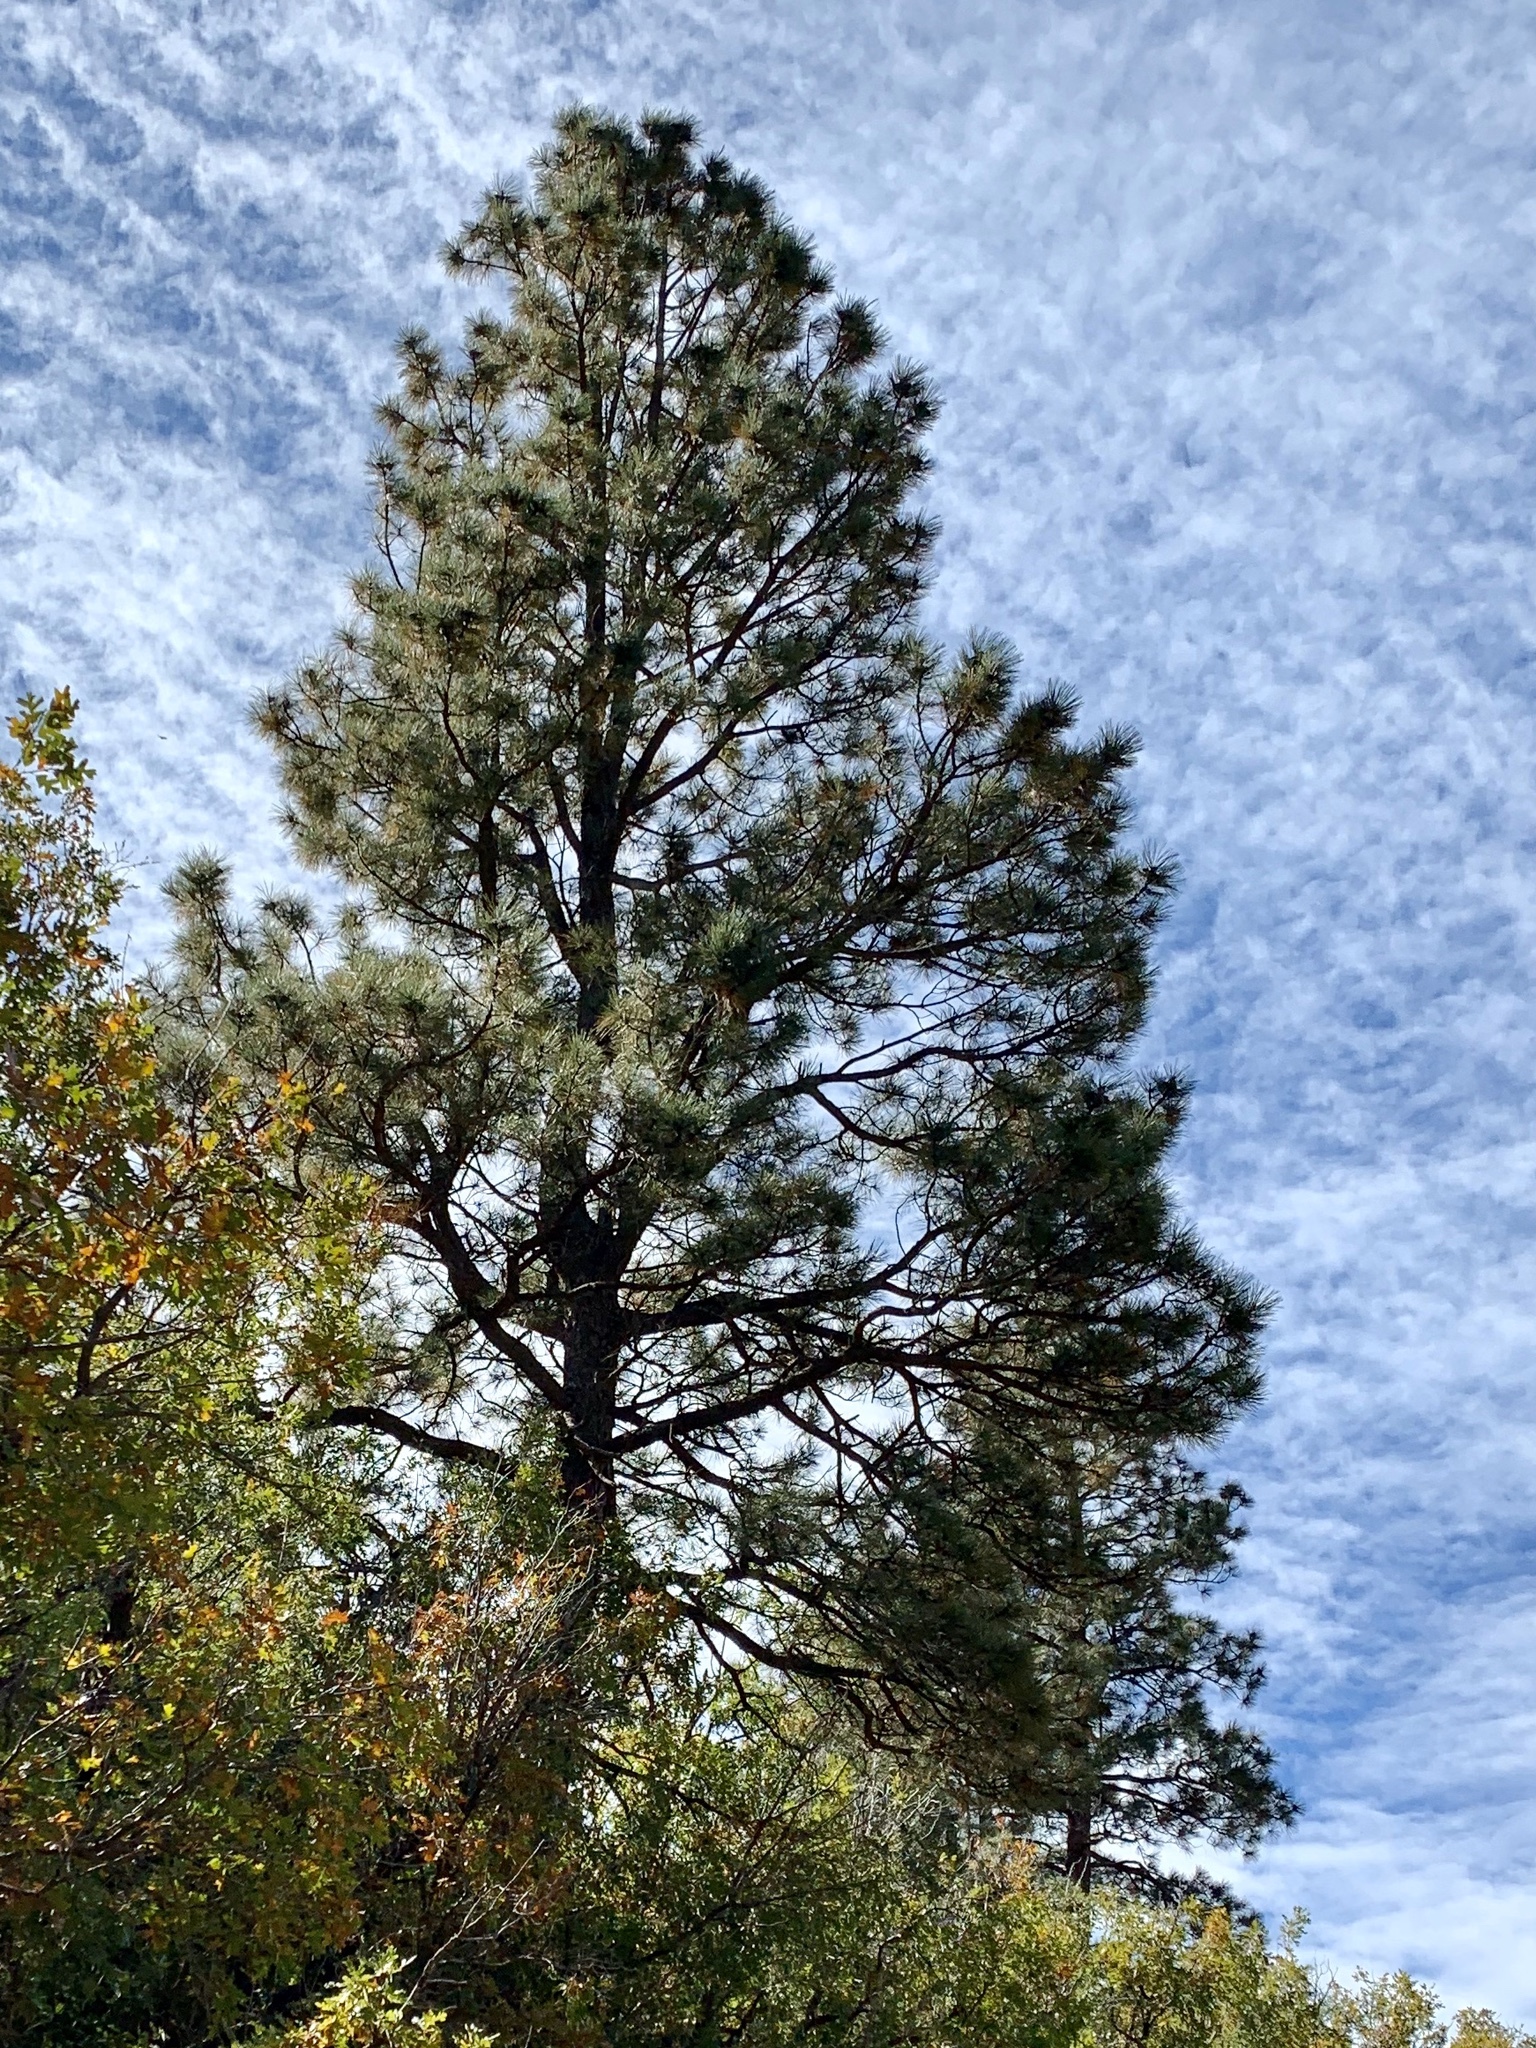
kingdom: Plantae
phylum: Tracheophyta
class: Pinopsida
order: Pinales
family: Pinaceae
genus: Pinus
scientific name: Pinus ponderosa
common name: Western yellow-pine
